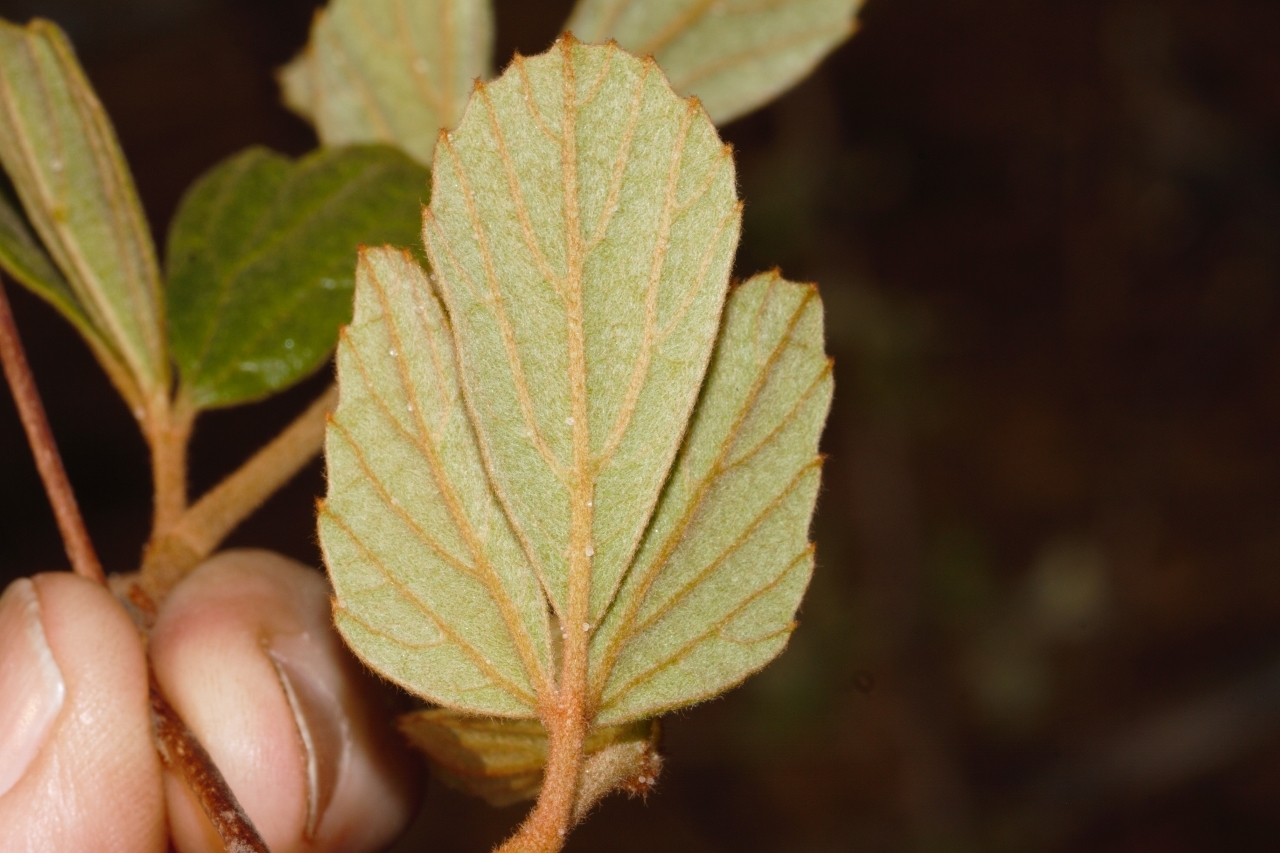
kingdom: Plantae
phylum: Tracheophyta
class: Magnoliopsida
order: Vitales
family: Vitaceae
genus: Rhoicissus
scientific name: Rhoicissus tridentata
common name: Common forest grape
